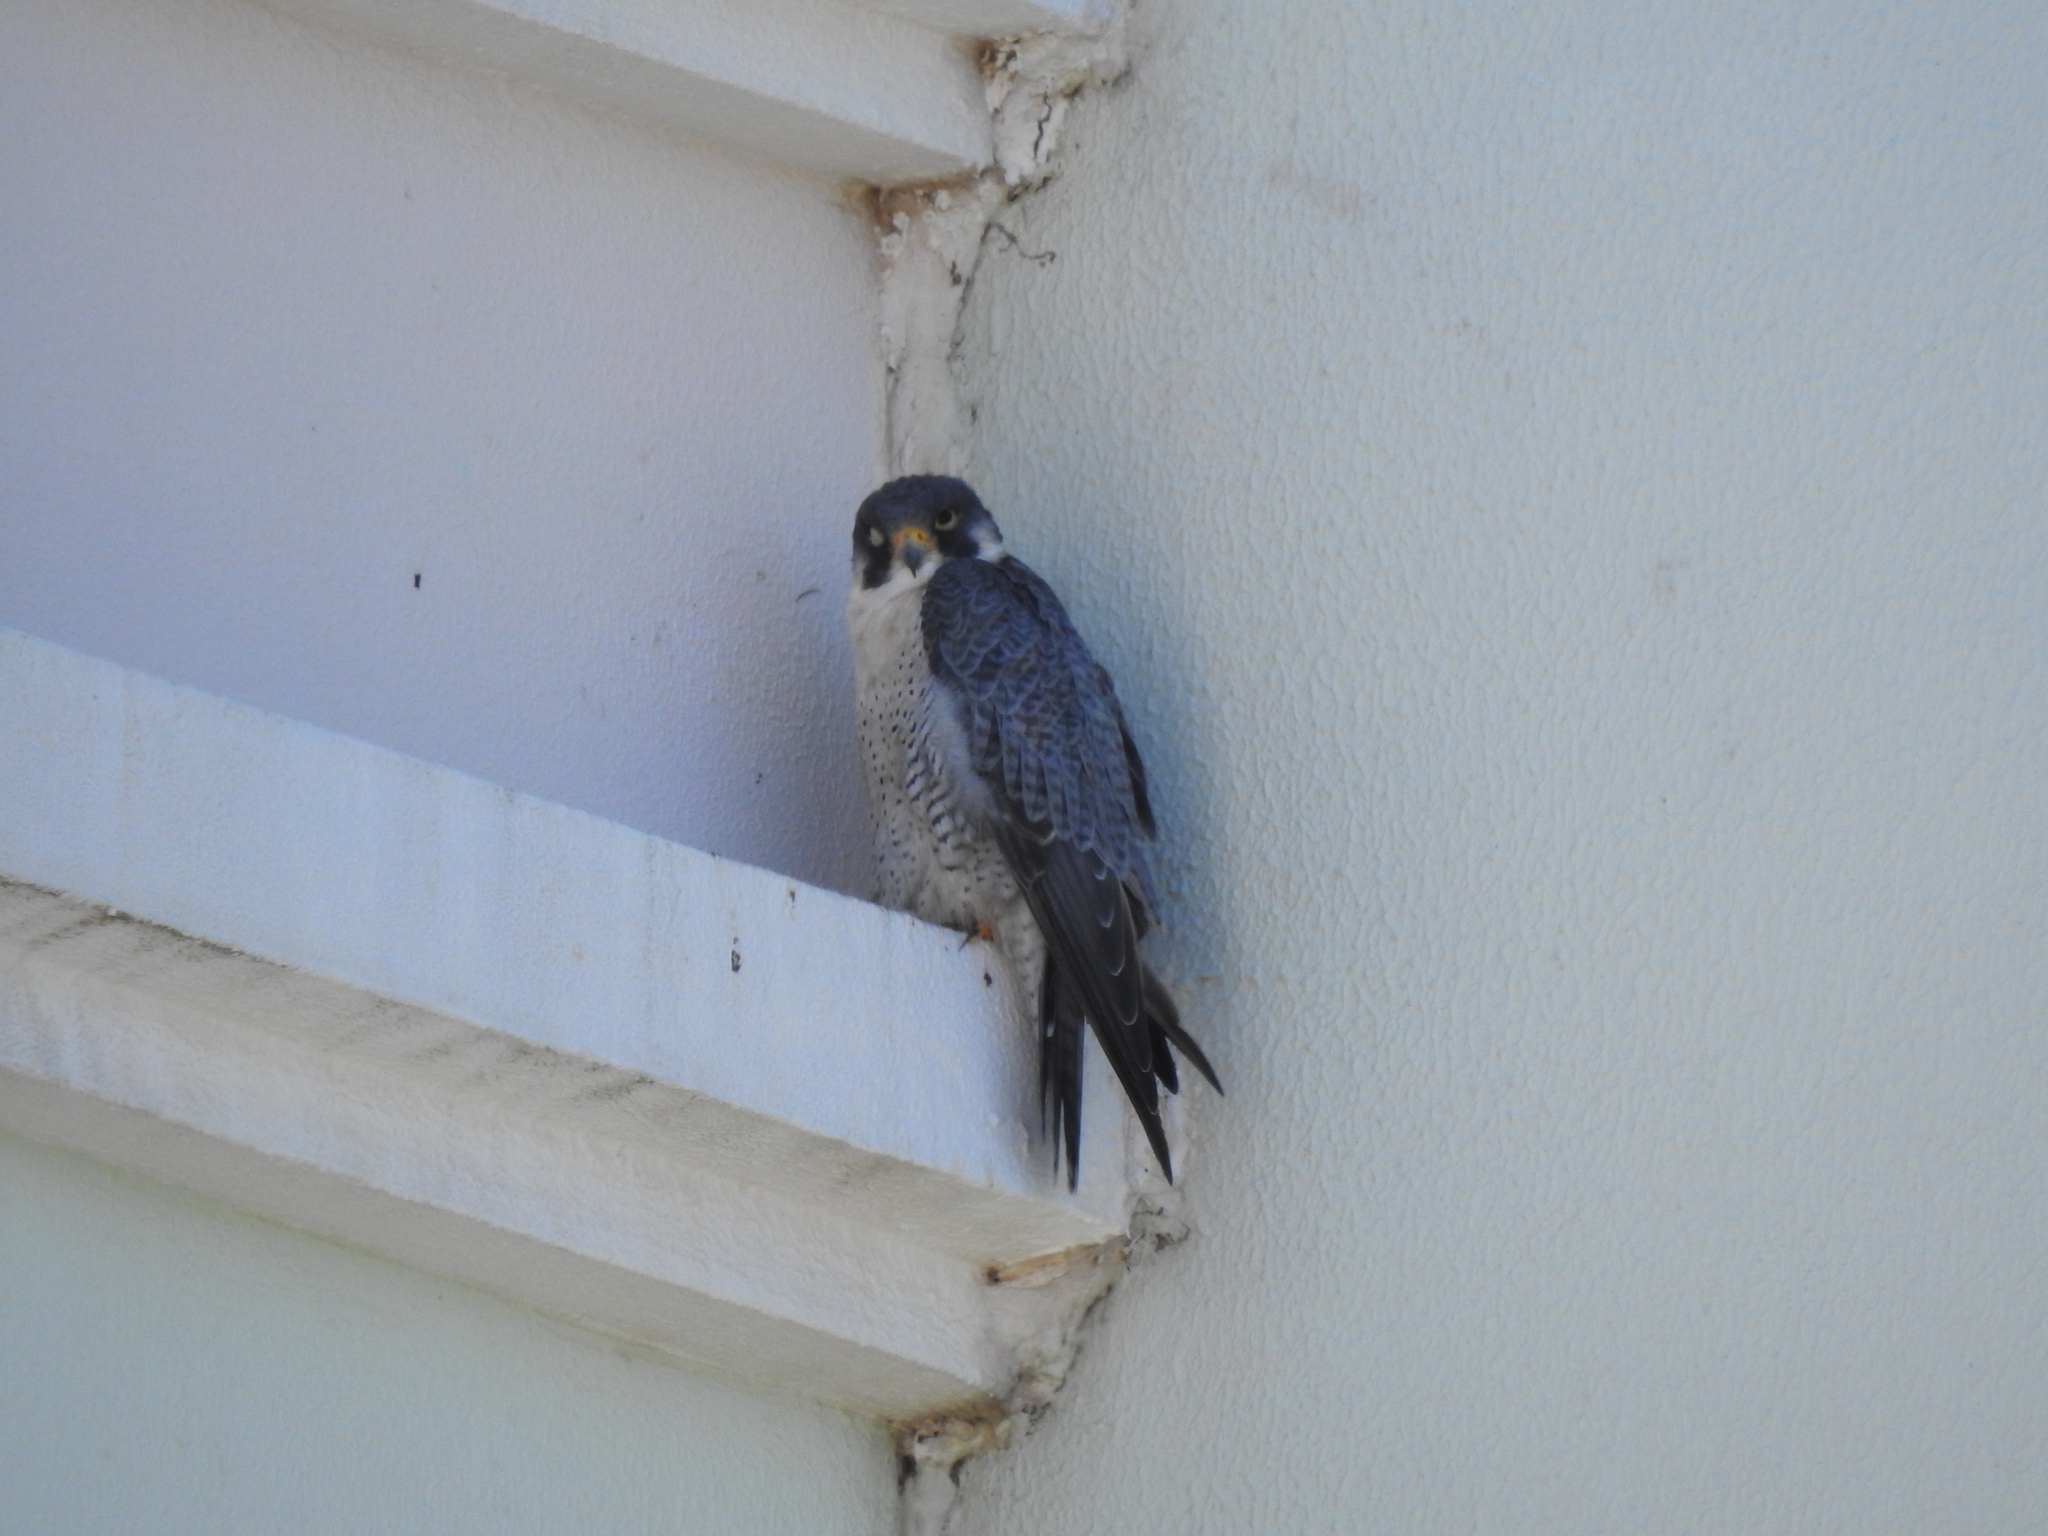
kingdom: Animalia
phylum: Chordata
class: Aves
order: Falconiformes
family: Falconidae
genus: Falco
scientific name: Falco peregrinus
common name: Peregrine falcon
